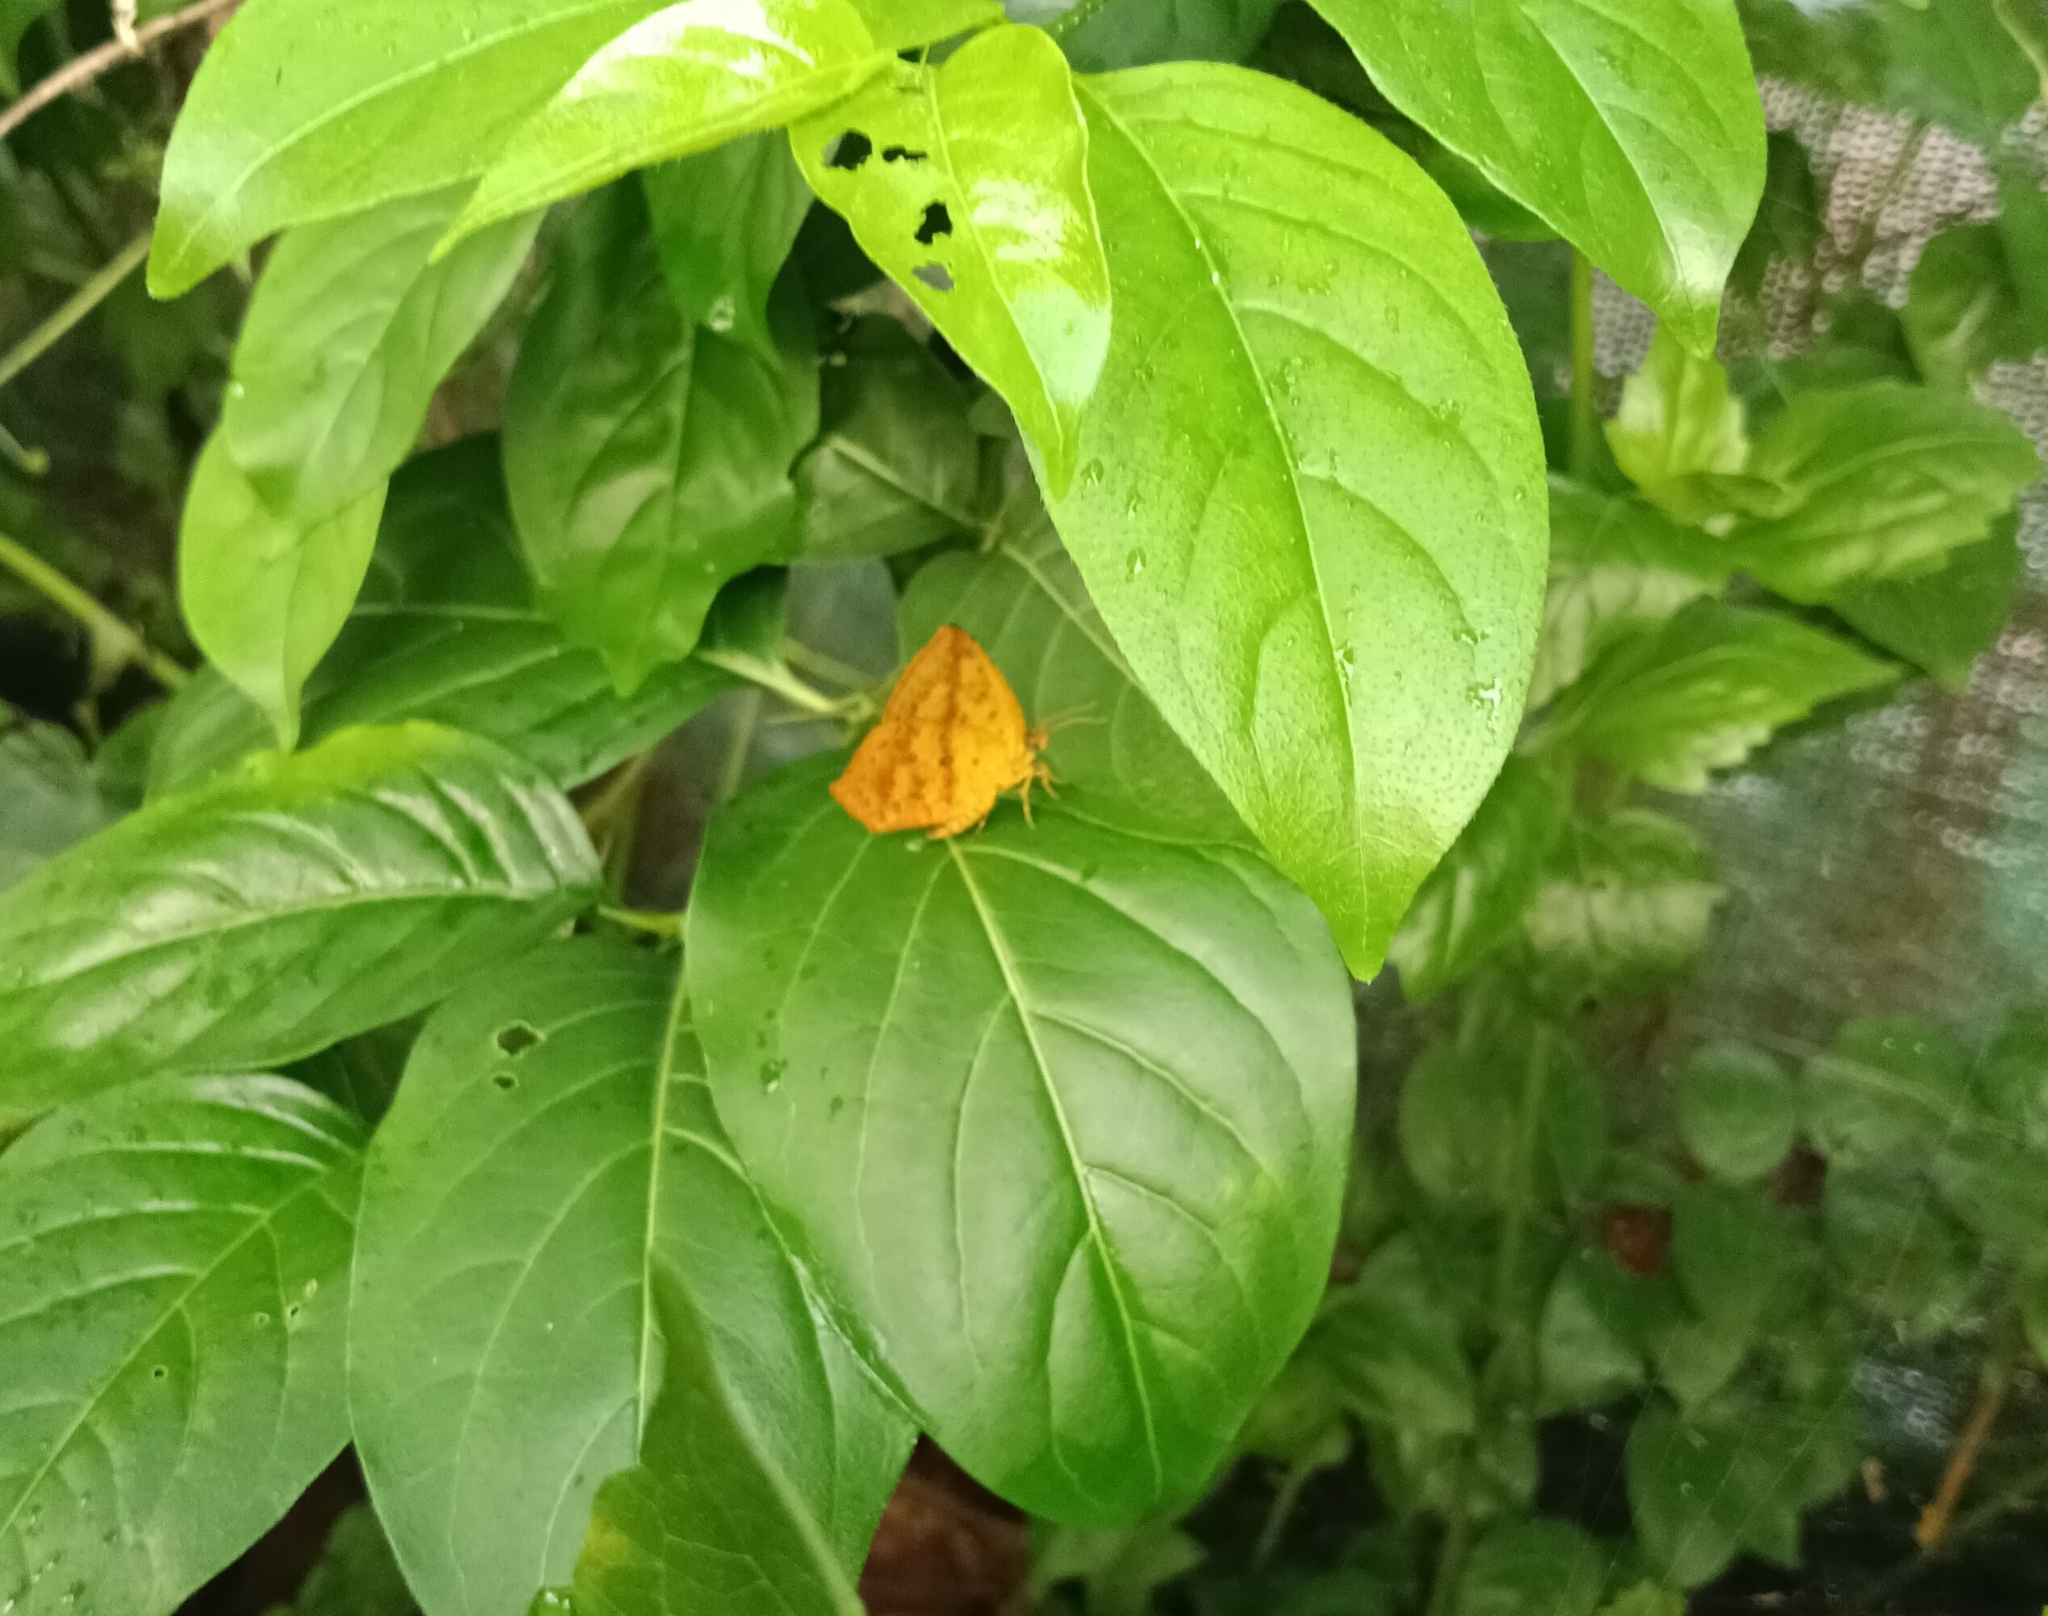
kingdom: Animalia
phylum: Arthropoda
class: Insecta
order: Lepidoptera
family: Callidulidae
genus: Tetragonus
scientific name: Tetragonus catamitus
